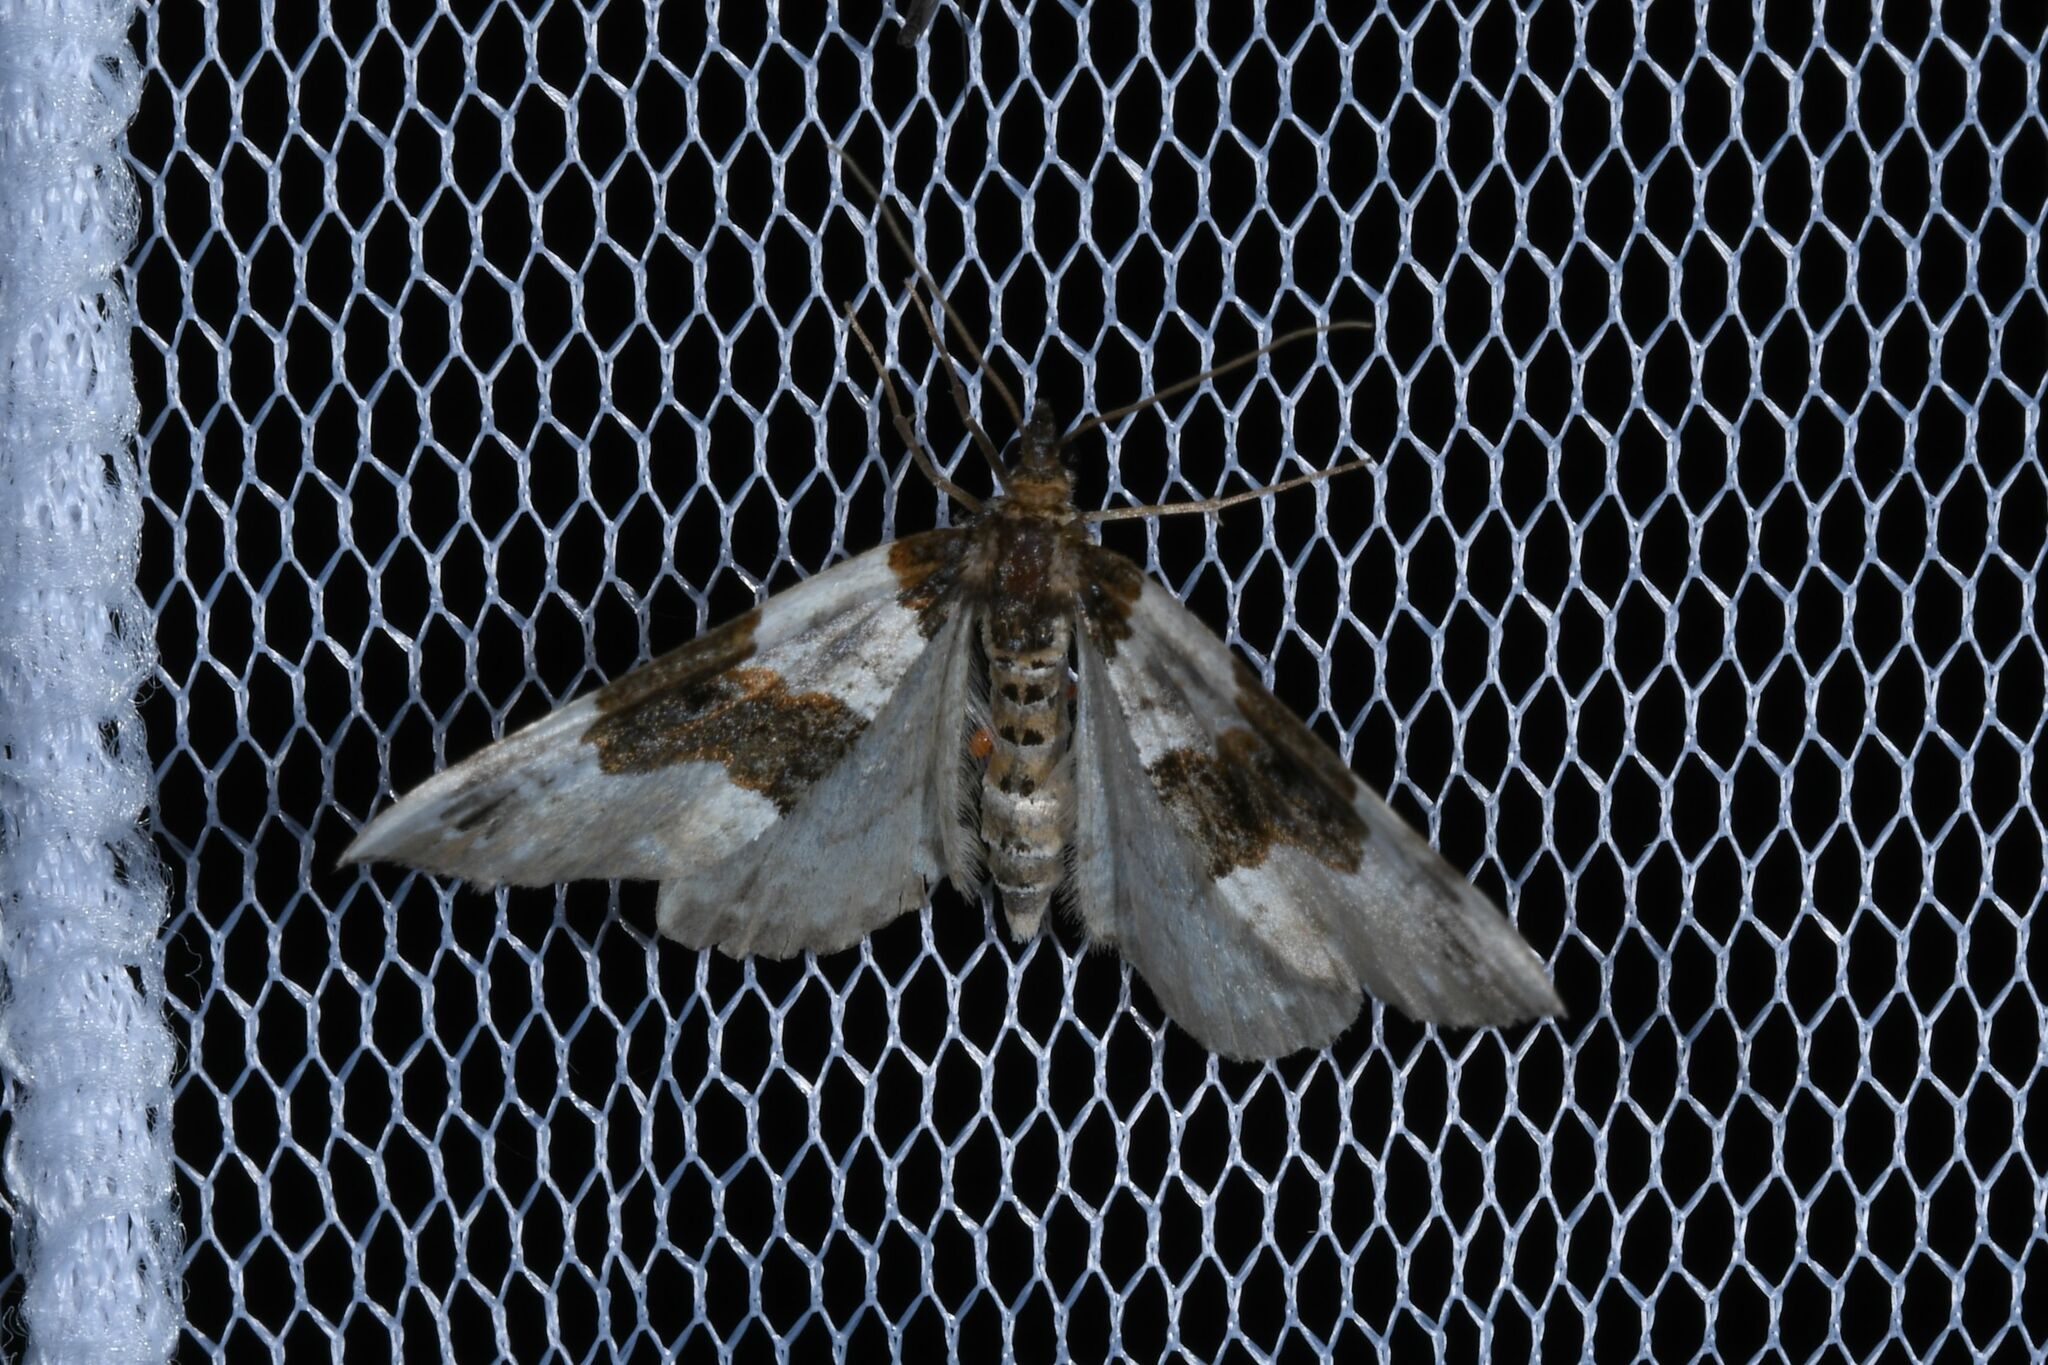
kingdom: Animalia
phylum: Arthropoda
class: Insecta
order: Lepidoptera
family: Geometridae
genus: Cosmorhoe
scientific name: Cosmorhoe ocellata
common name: Purple bar
